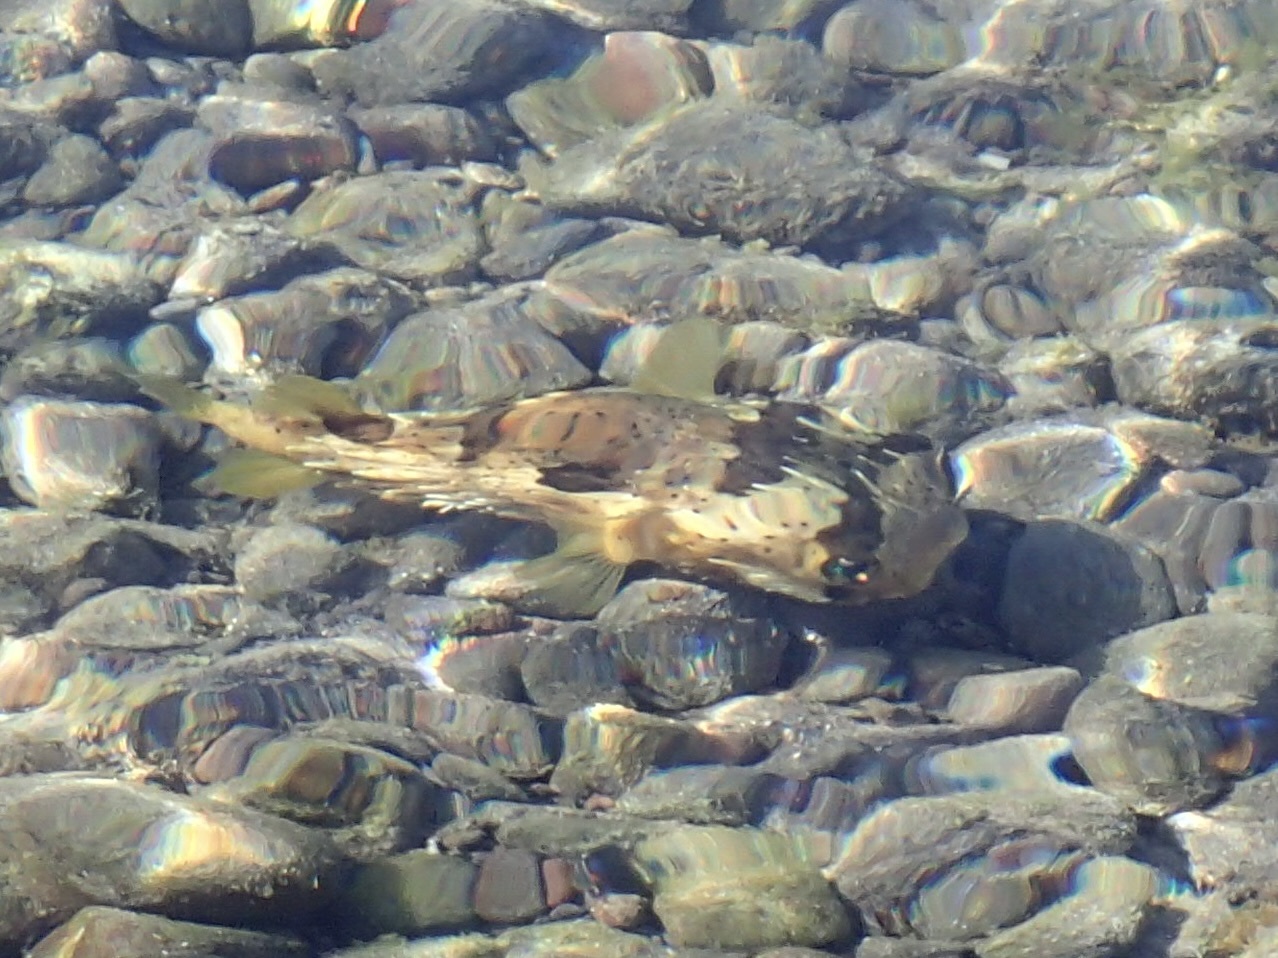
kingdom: Animalia
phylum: Chordata
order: Tetraodontiformes
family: Diodontidae
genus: Diodon
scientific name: Diodon holocanthus
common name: Balloonfish
